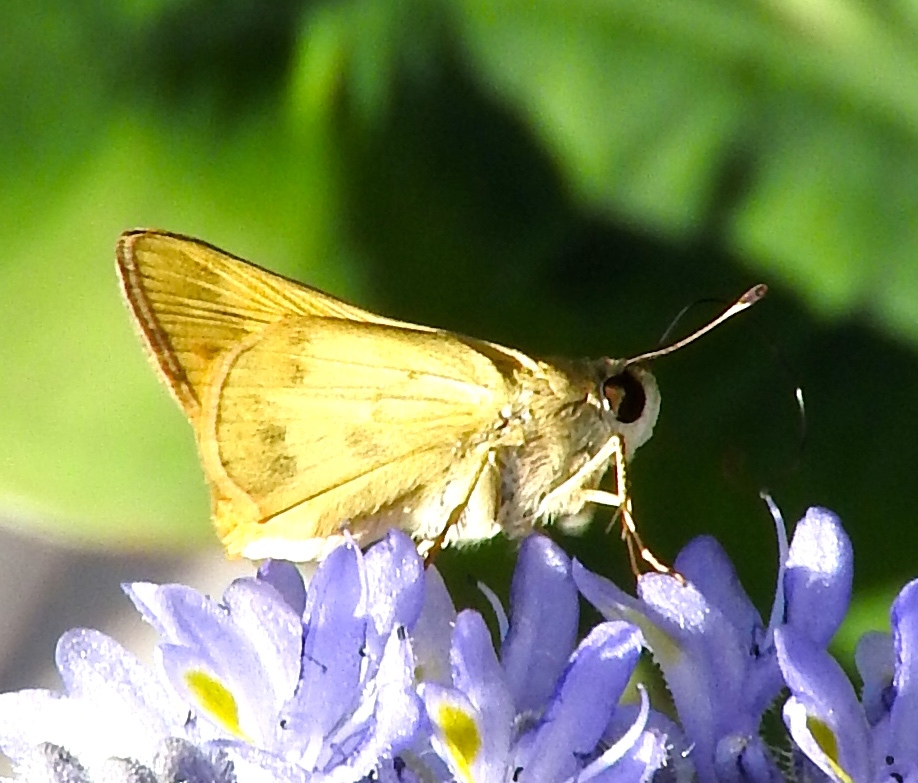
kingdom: Animalia
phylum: Arthropoda
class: Insecta
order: Lepidoptera
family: Hesperiidae
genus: Polites
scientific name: Polites vibex
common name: Whirlabout
